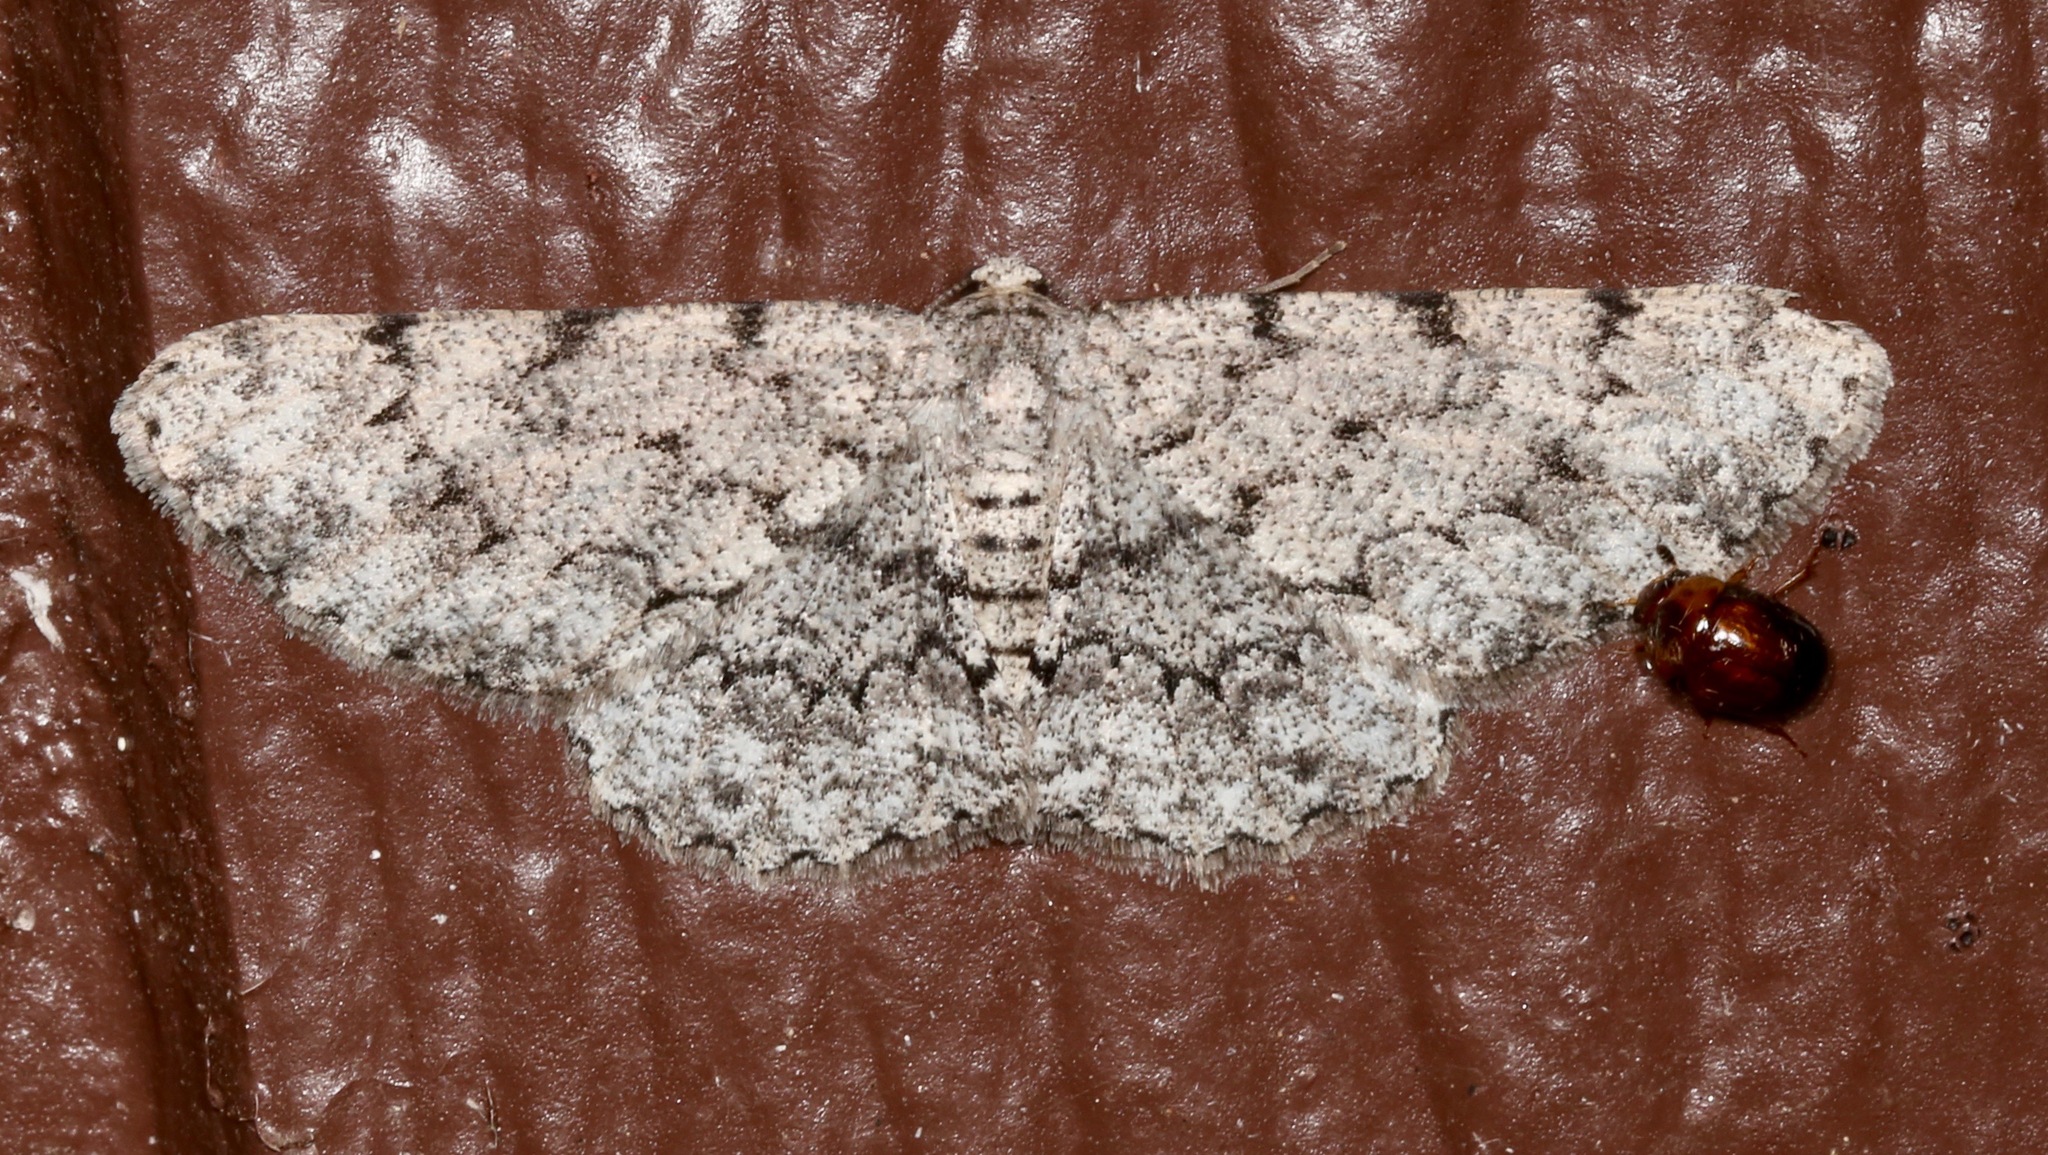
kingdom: Animalia
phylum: Arthropoda
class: Insecta
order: Lepidoptera
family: Geometridae
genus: Glena
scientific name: Glena grisearia
